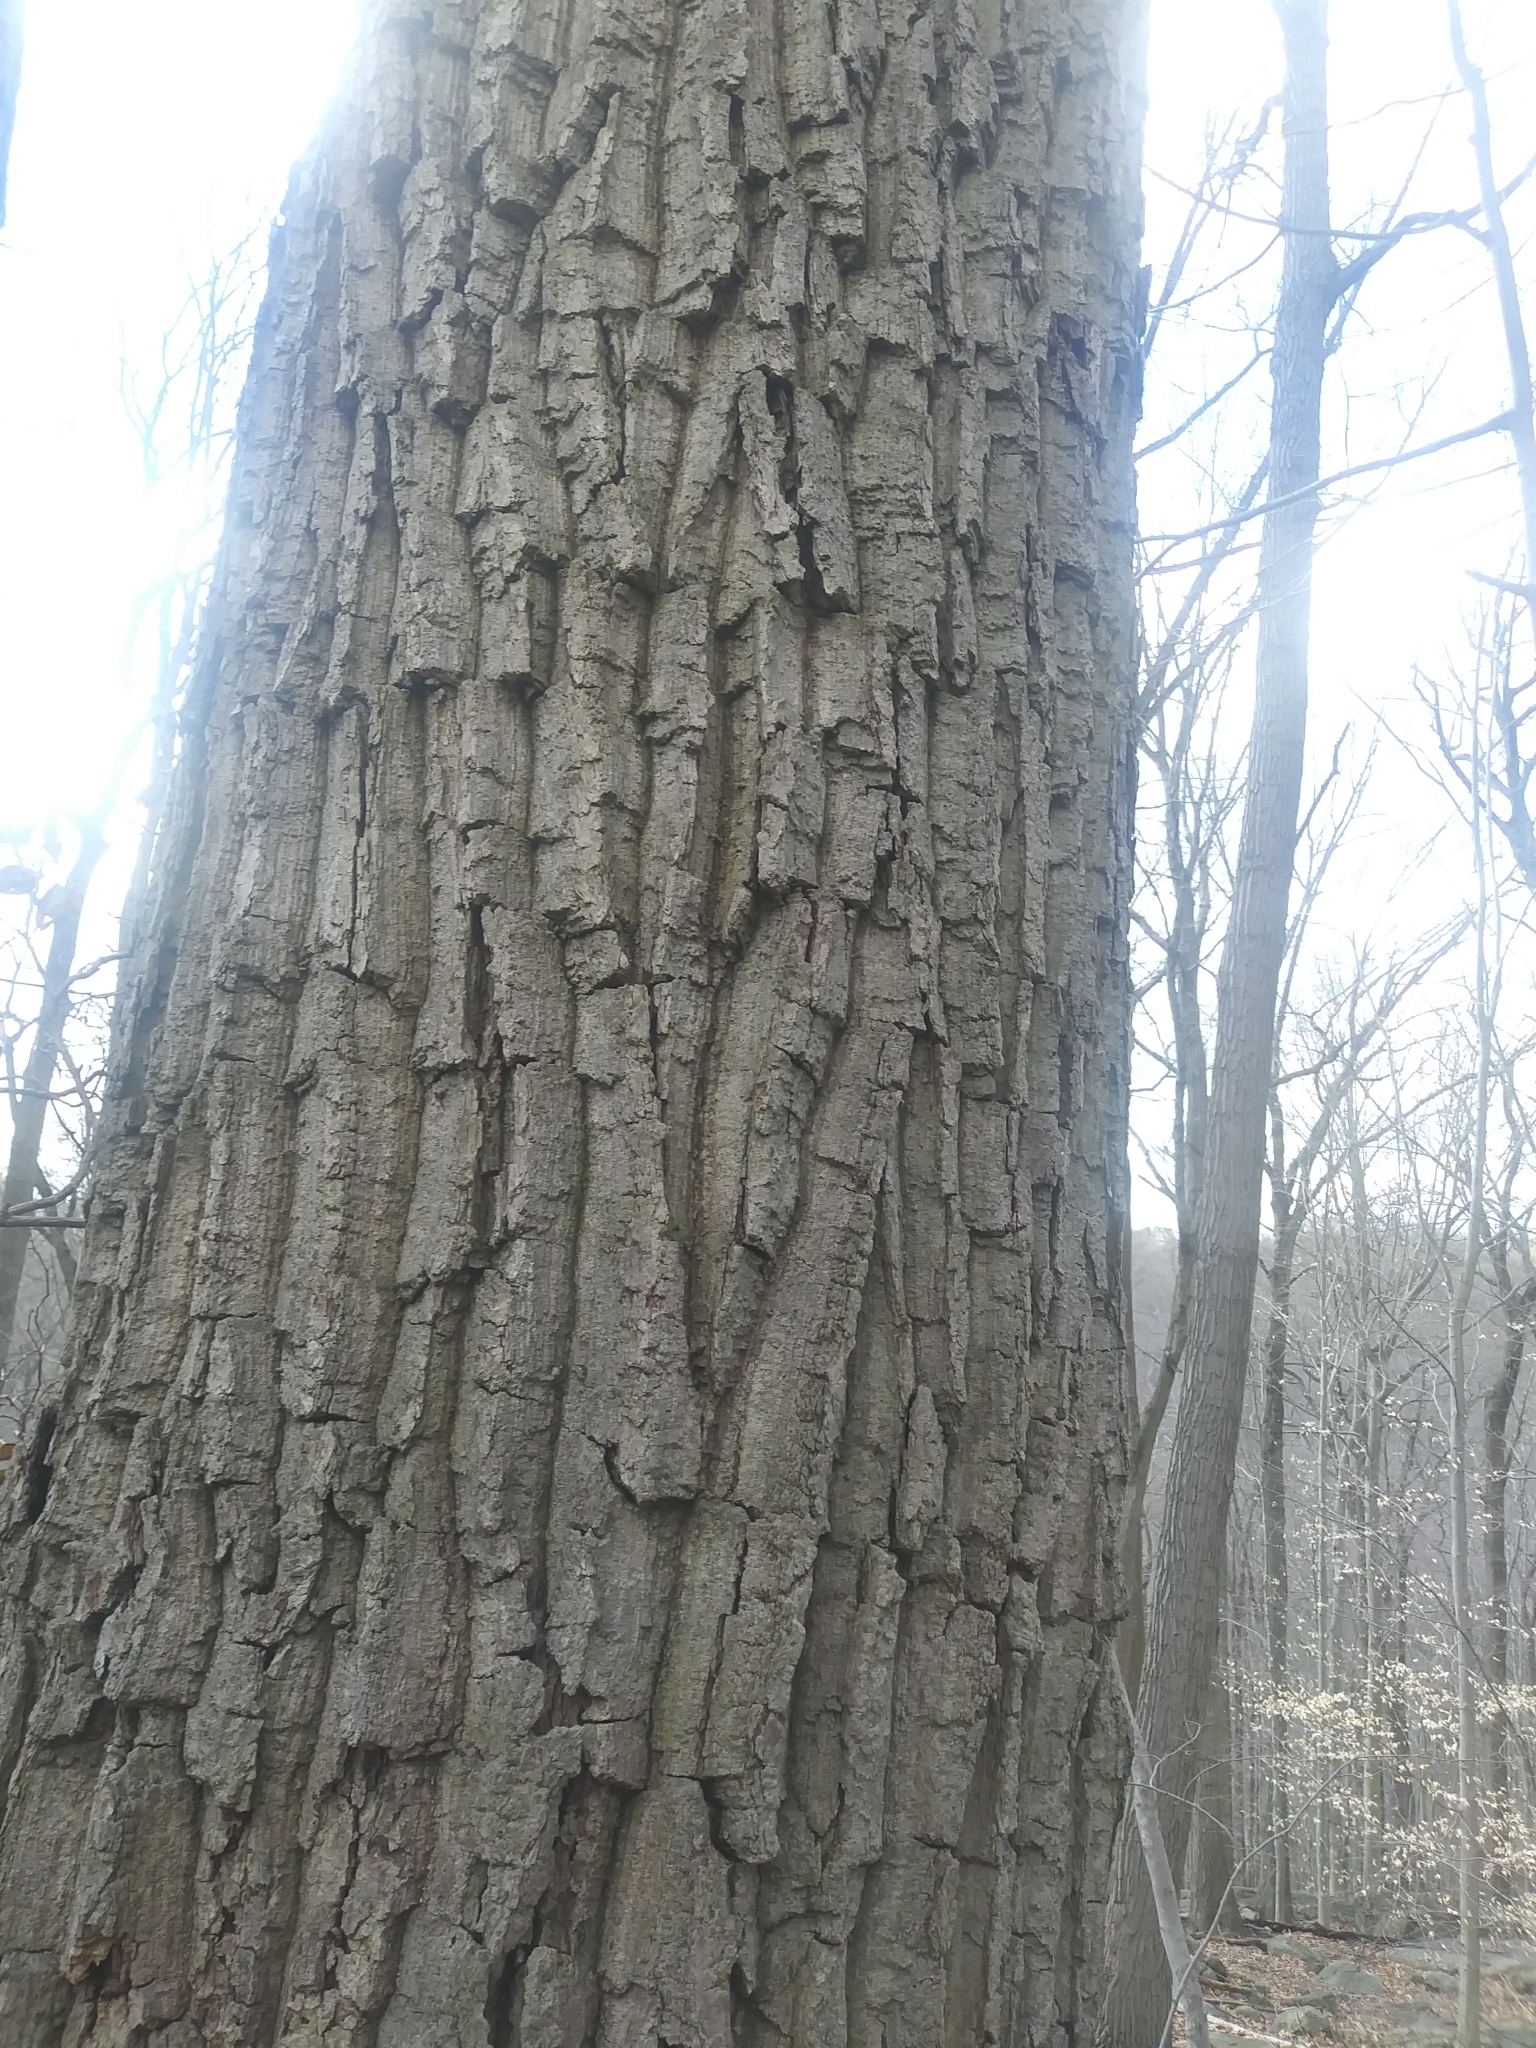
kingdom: Plantae
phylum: Tracheophyta
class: Magnoliopsida
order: Fagales
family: Fagaceae
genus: Quercus
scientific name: Quercus montana
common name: Chestnut oak
